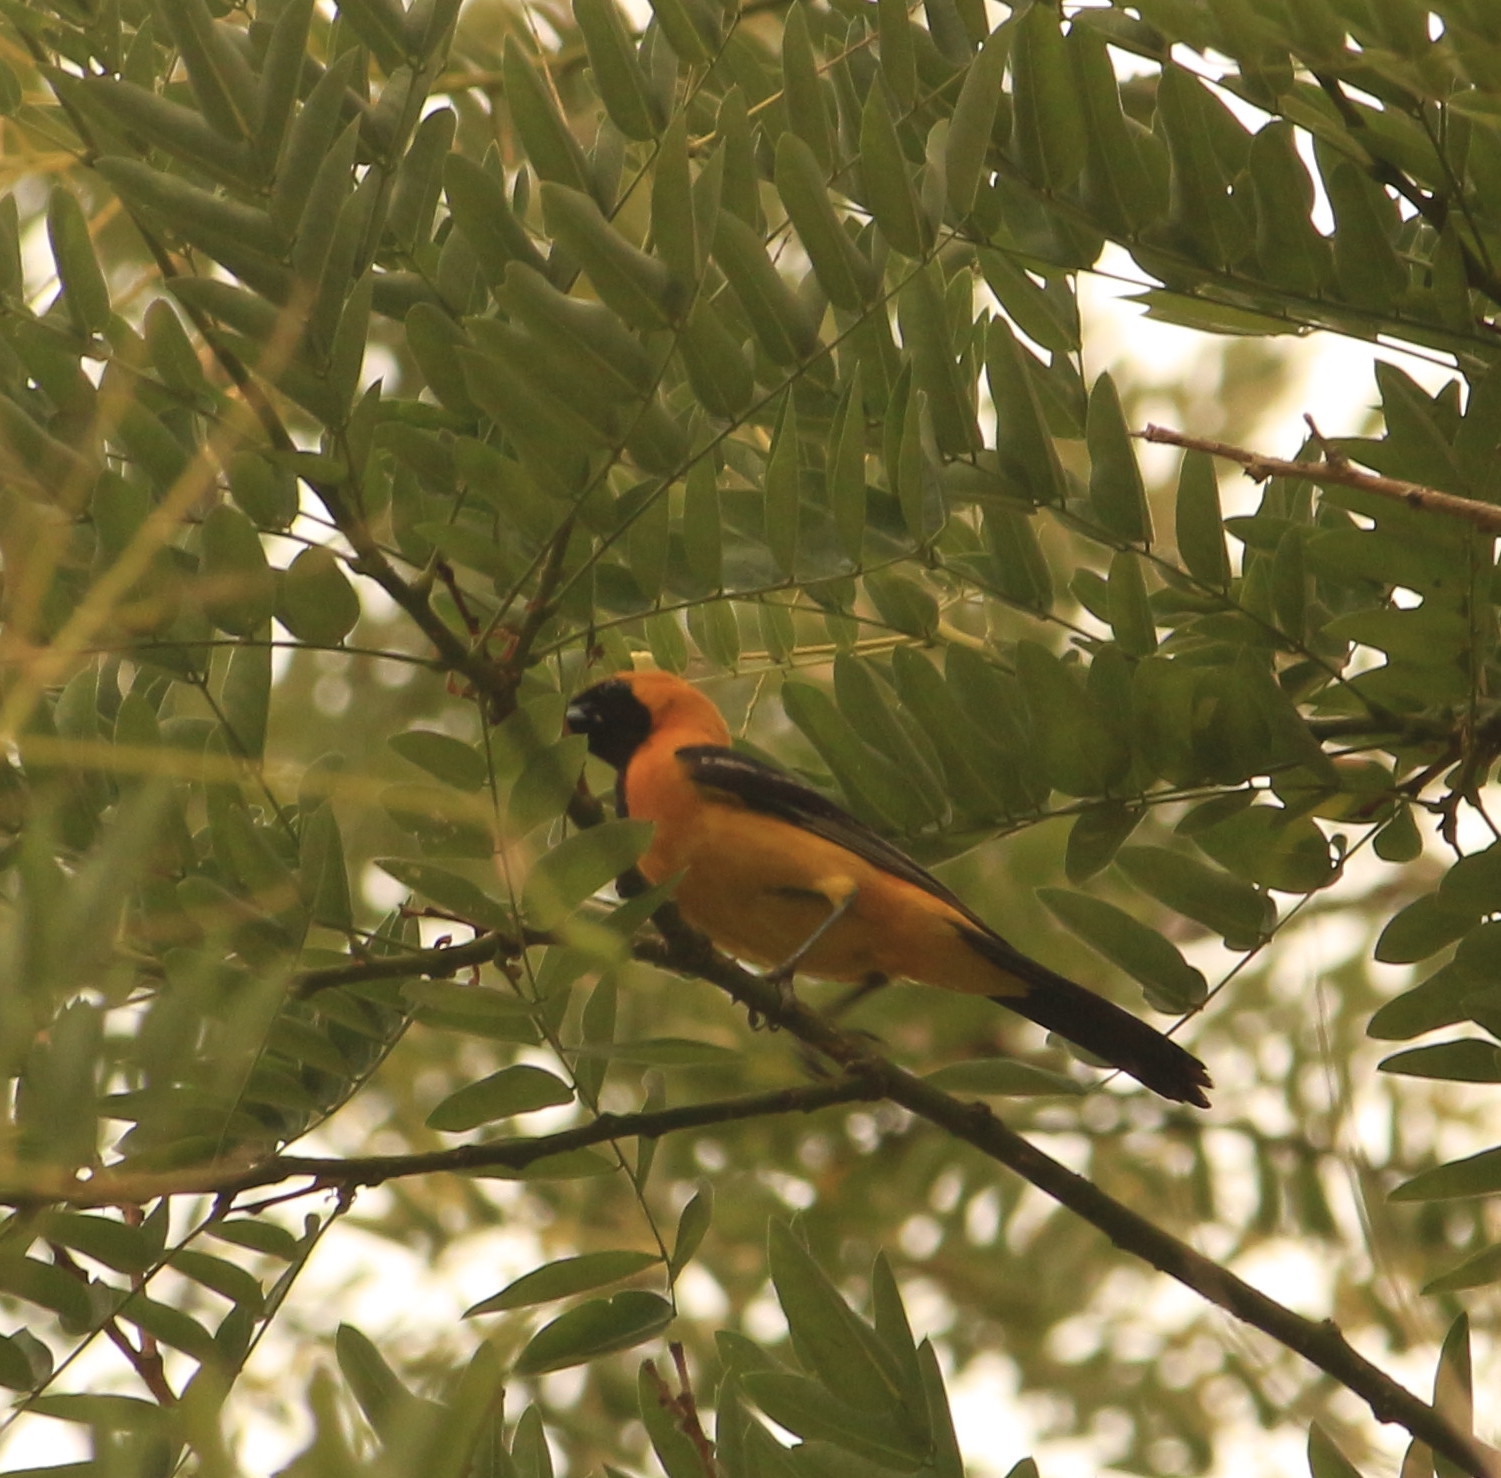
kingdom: Animalia
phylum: Chordata
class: Aves
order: Passeriformes
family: Icteridae
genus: Icterus
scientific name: Icterus cucullatus
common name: Hooded oriole
